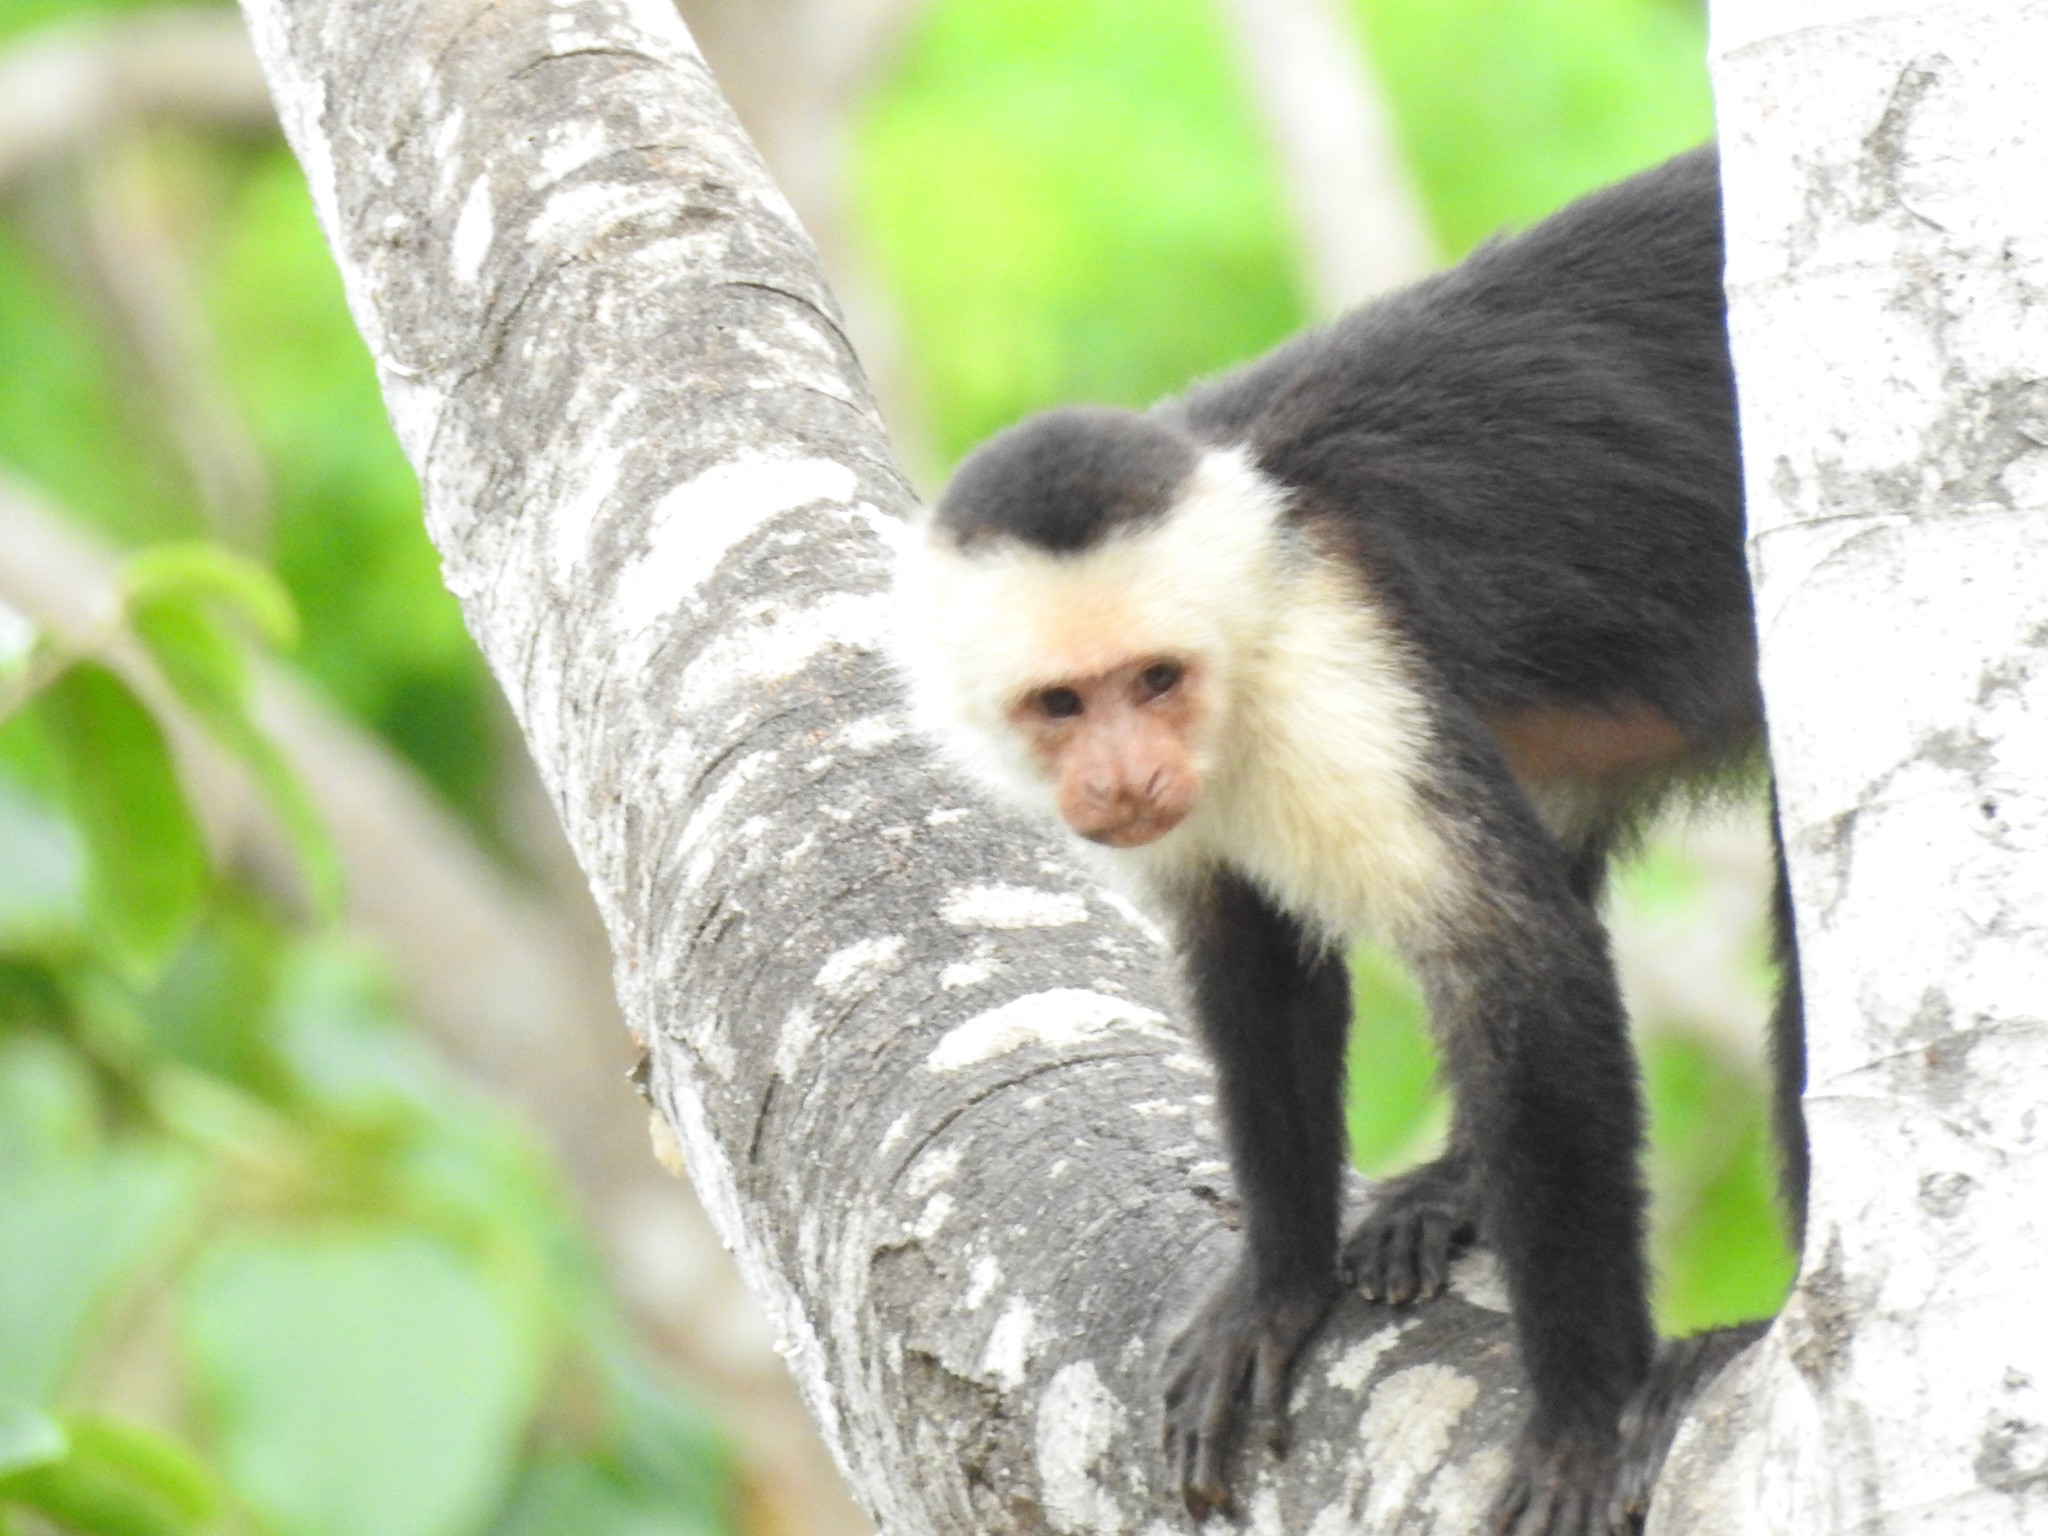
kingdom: Animalia
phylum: Chordata
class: Mammalia
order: Primates
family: Cebidae
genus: Cebus
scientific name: Cebus imitator
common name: Panamanian white-faced capuchin
